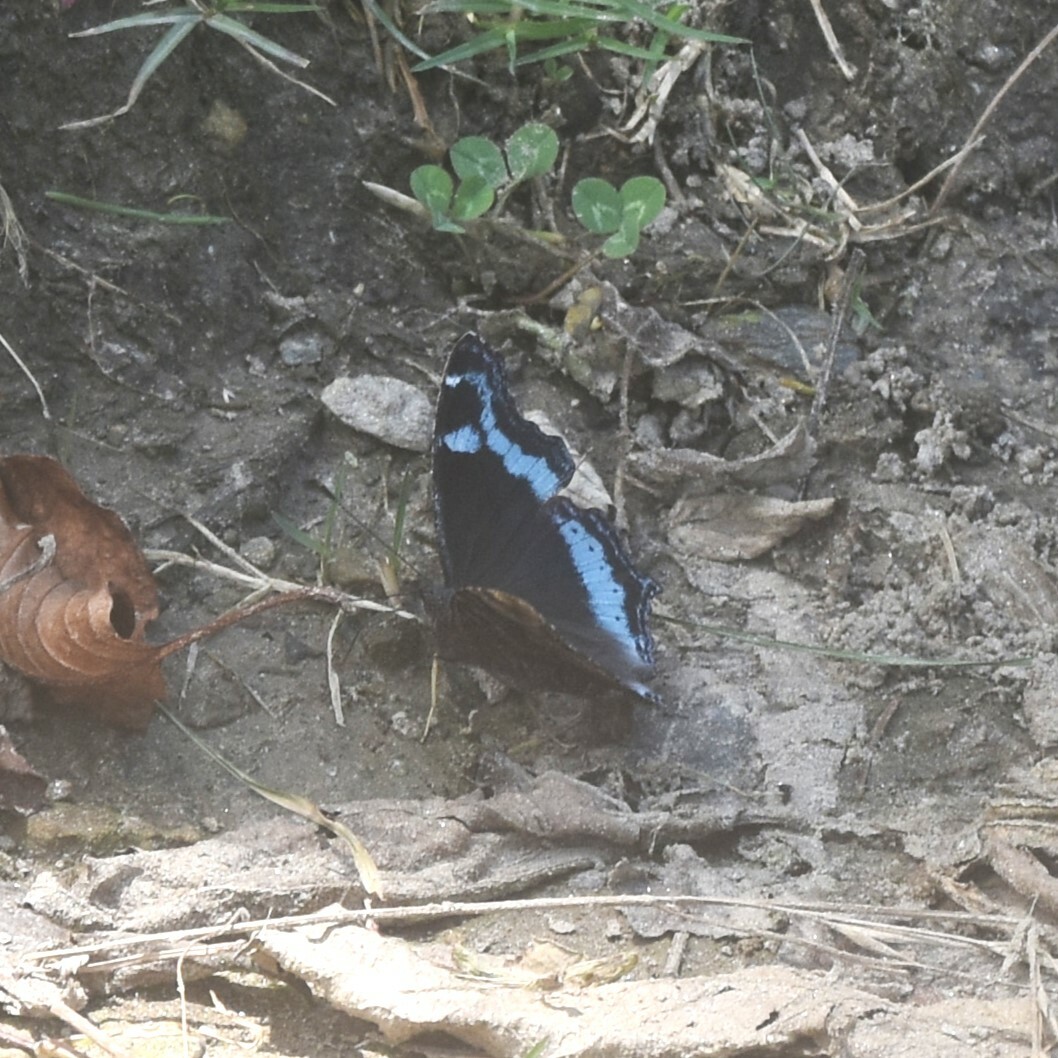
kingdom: Animalia
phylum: Arthropoda
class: Insecta
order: Lepidoptera
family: Nymphalidae
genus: Vanessa
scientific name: Vanessa Kaniska canace
